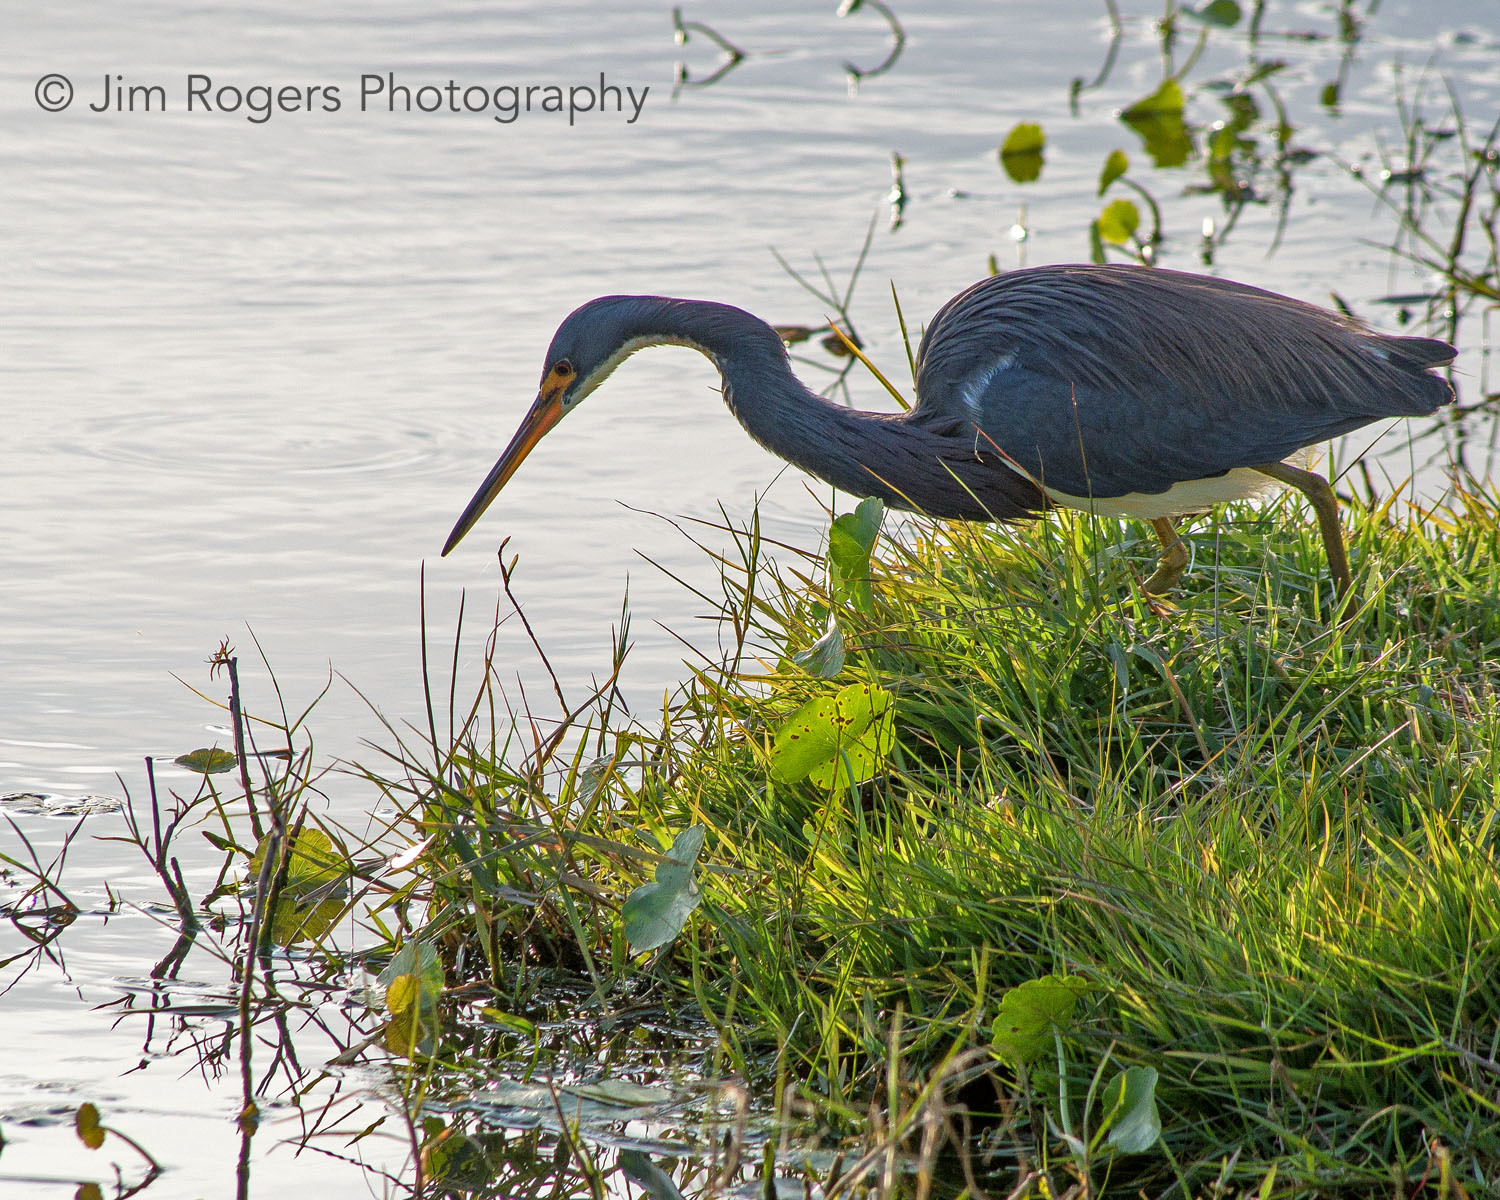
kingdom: Animalia
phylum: Chordata
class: Aves
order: Pelecaniformes
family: Ardeidae
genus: Egretta
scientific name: Egretta tricolor
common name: Tricolored heron
